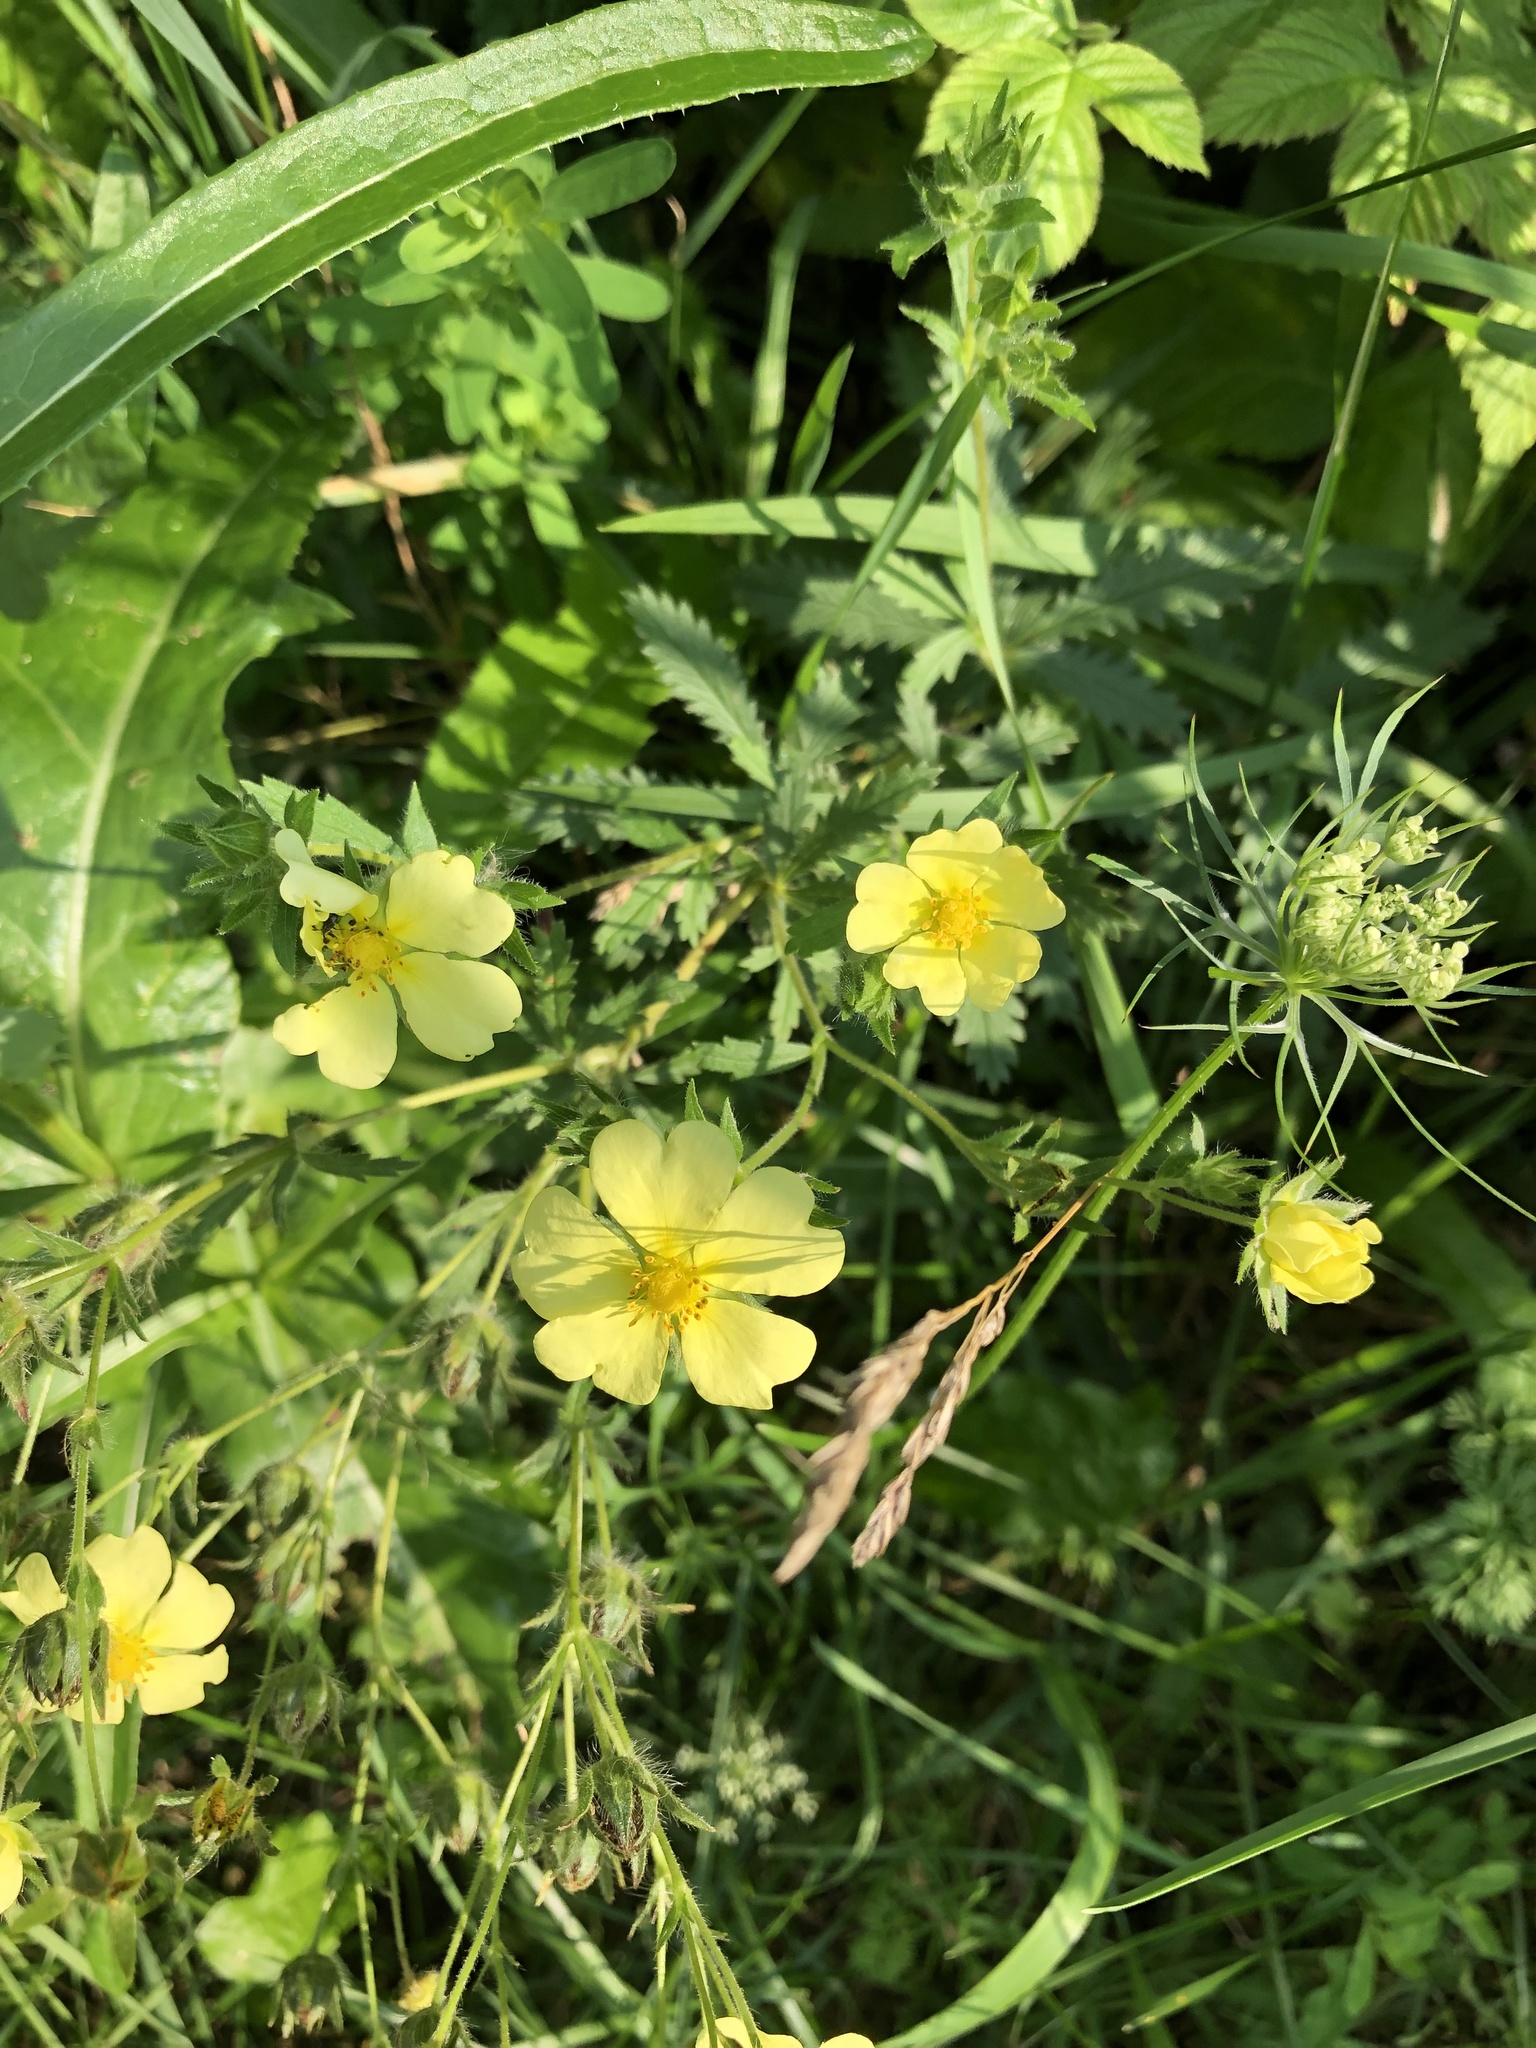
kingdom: Plantae
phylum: Tracheophyta
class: Magnoliopsida
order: Rosales
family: Rosaceae
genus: Potentilla
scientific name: Potentilla recta
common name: Sulphur cinquefoil
